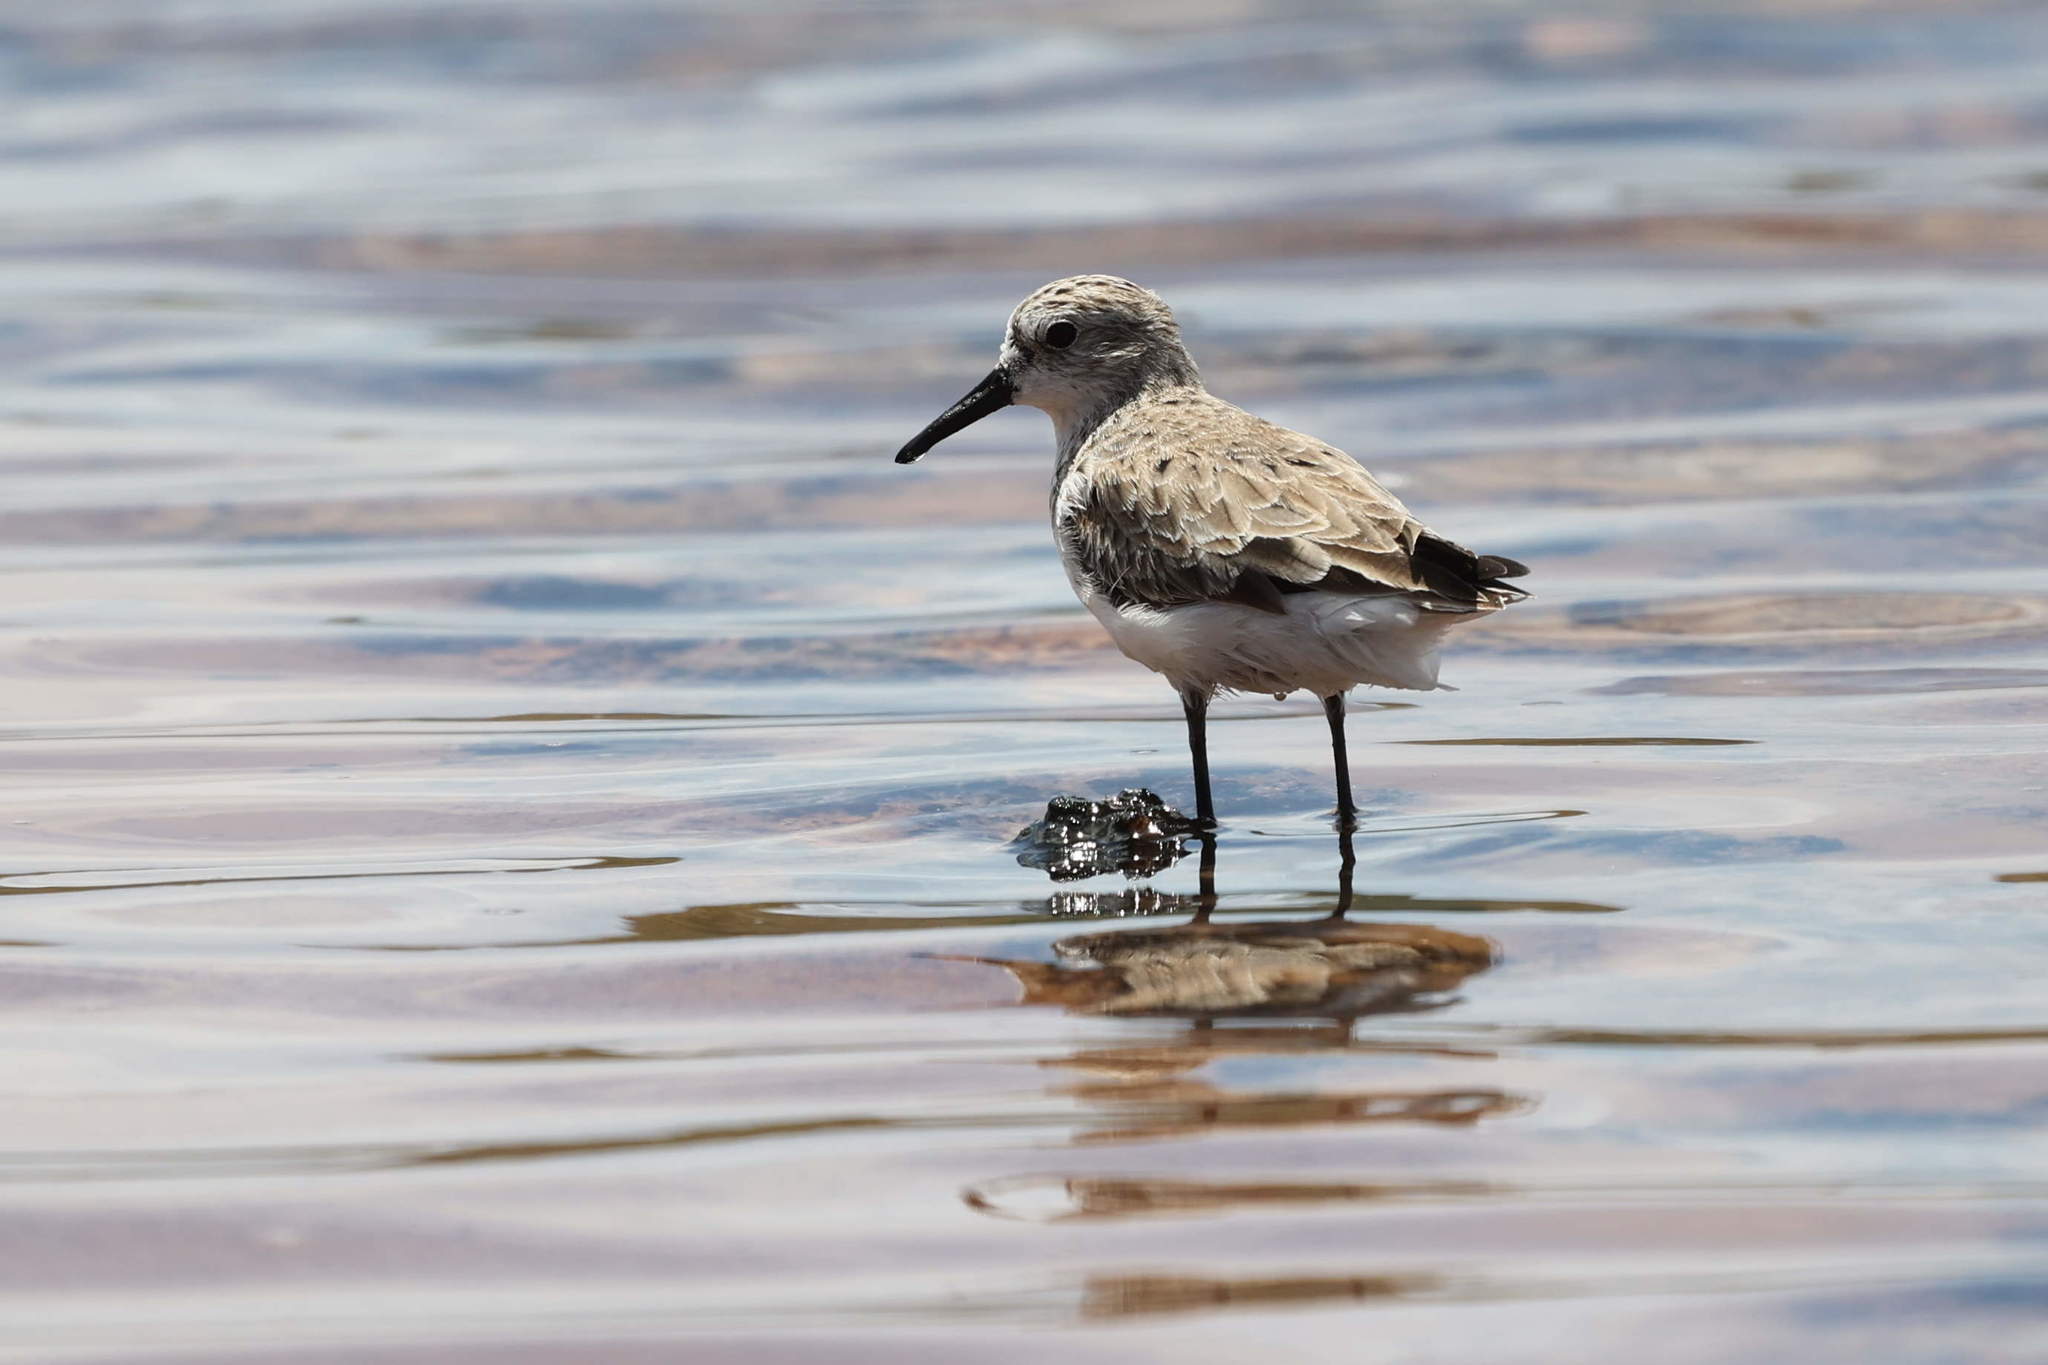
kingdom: Animalia
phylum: Chordata
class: Aves
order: Charadriiformes
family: Scolopacidae
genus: Calidris
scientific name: Calidris alba
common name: Sanderling
